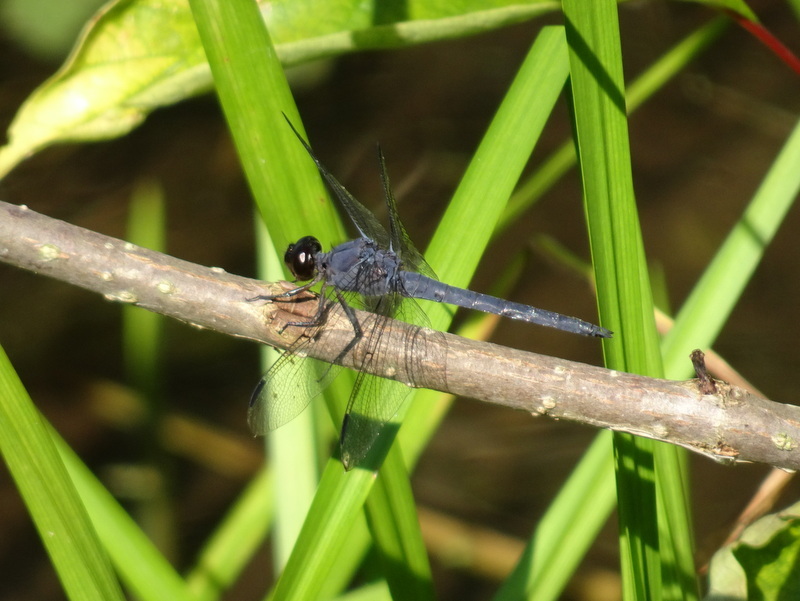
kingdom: Animalia
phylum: Arthropoda
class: Insecta
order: Odonata
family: Libellulidae
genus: Libellula
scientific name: Libellula incesta
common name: Slaty skimmer
